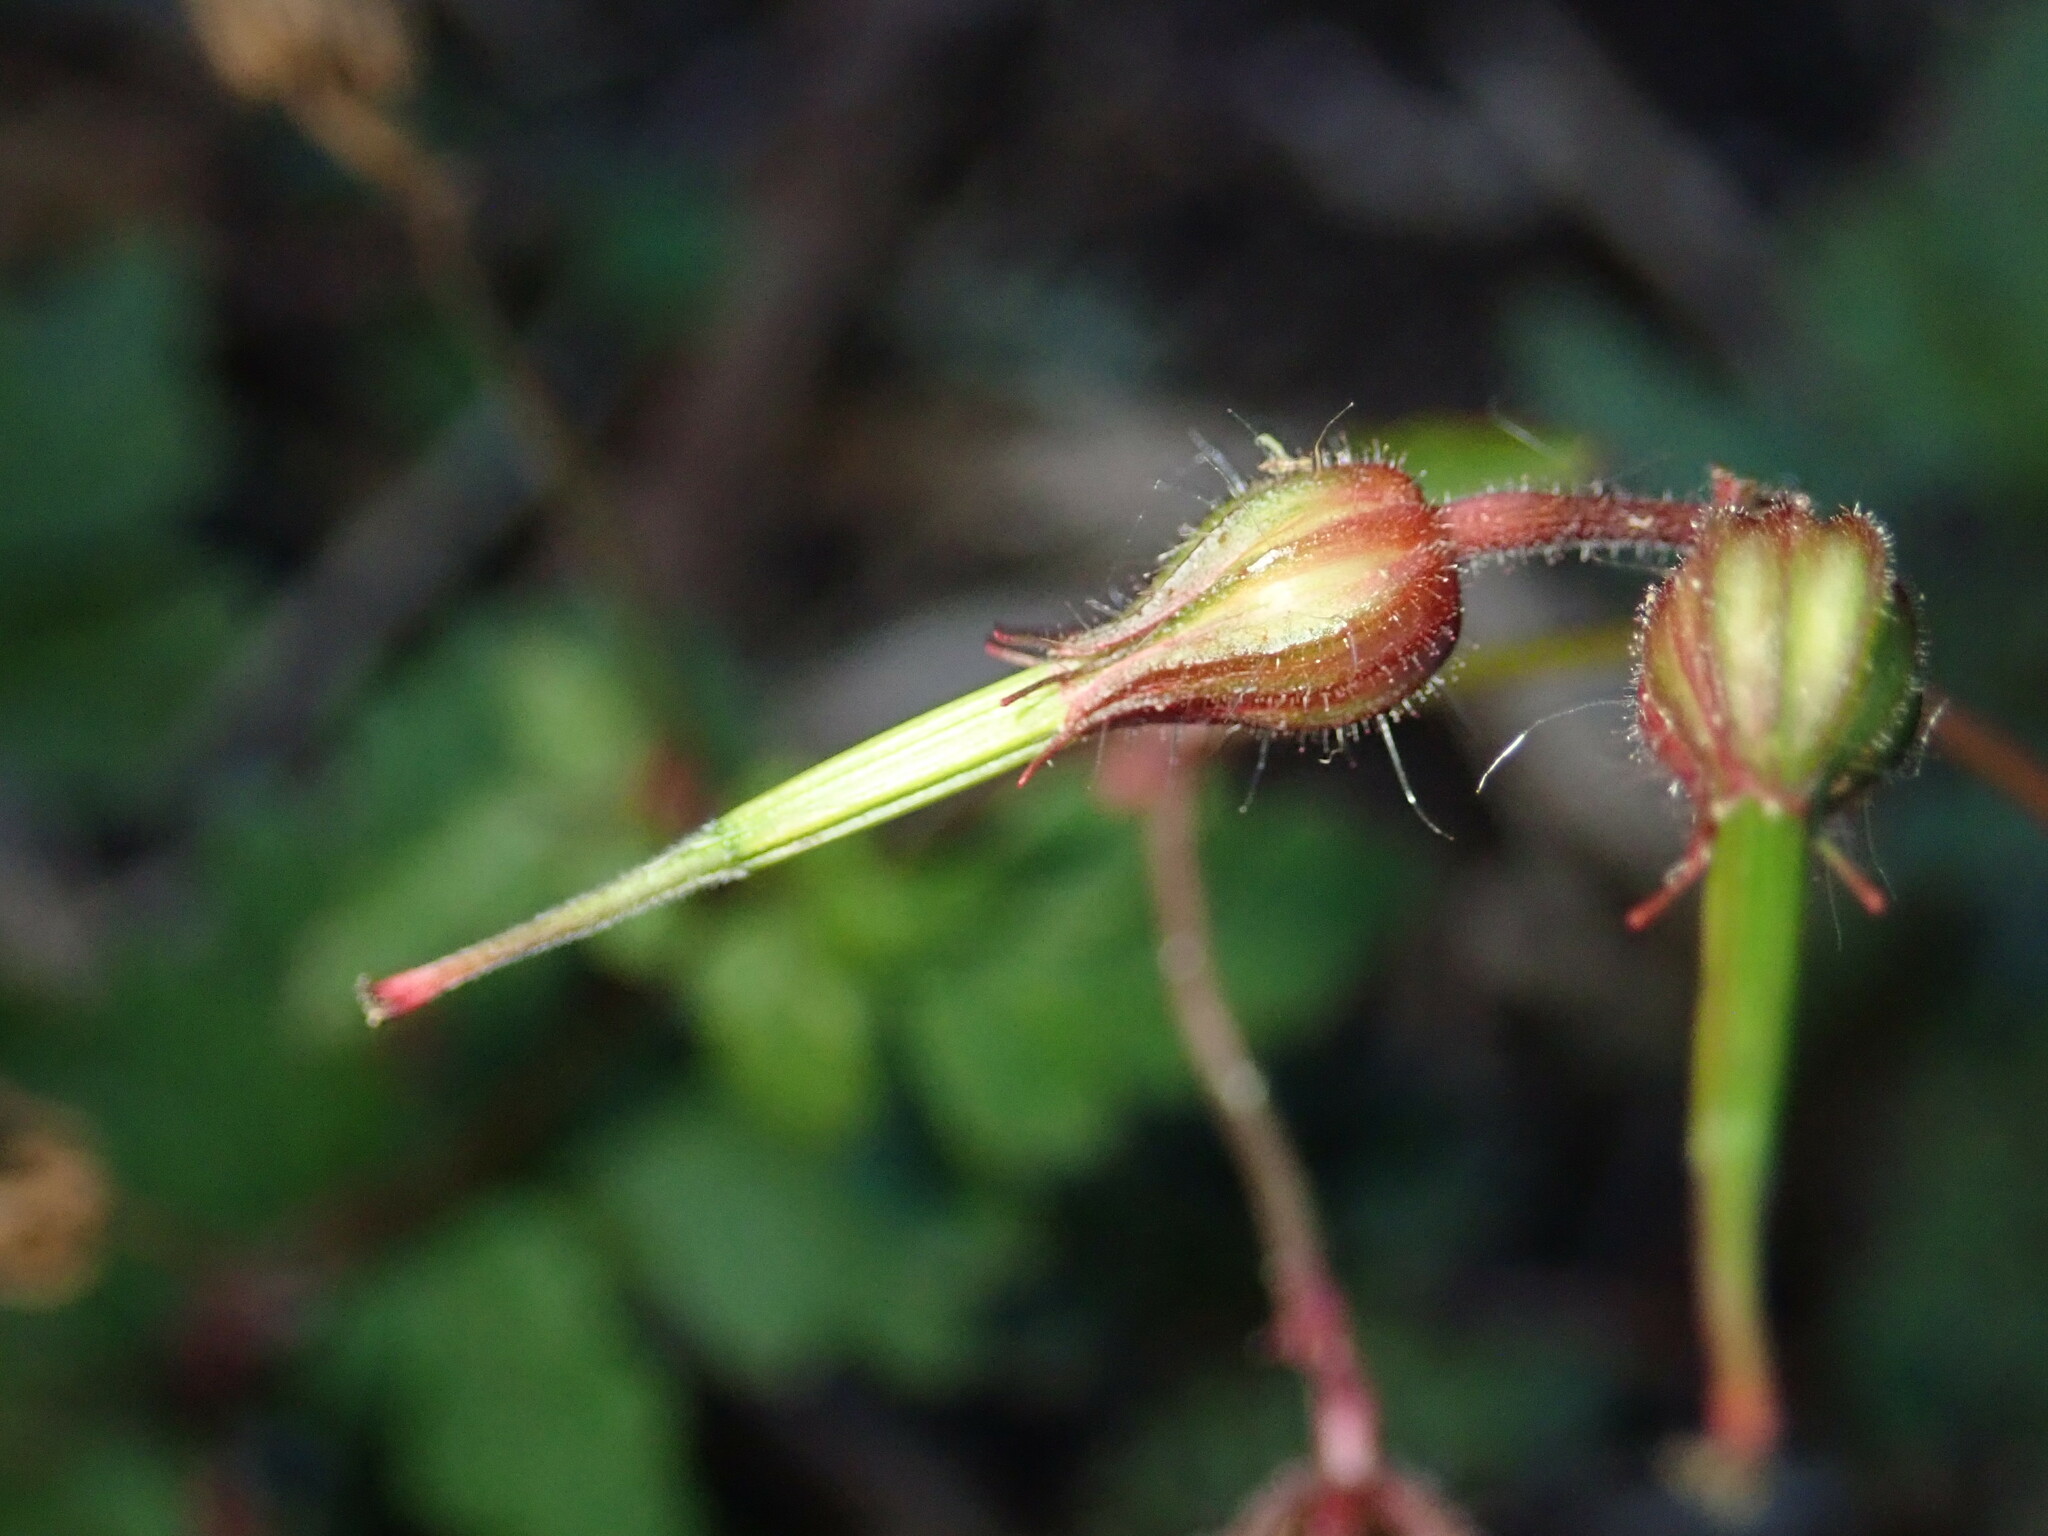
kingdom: Plantae
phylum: Tracheophyta
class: Magnoliopsida
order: Geraniales
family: Geraniaceae
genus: Geranium
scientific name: Geranium robertianum
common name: Herb-robert
